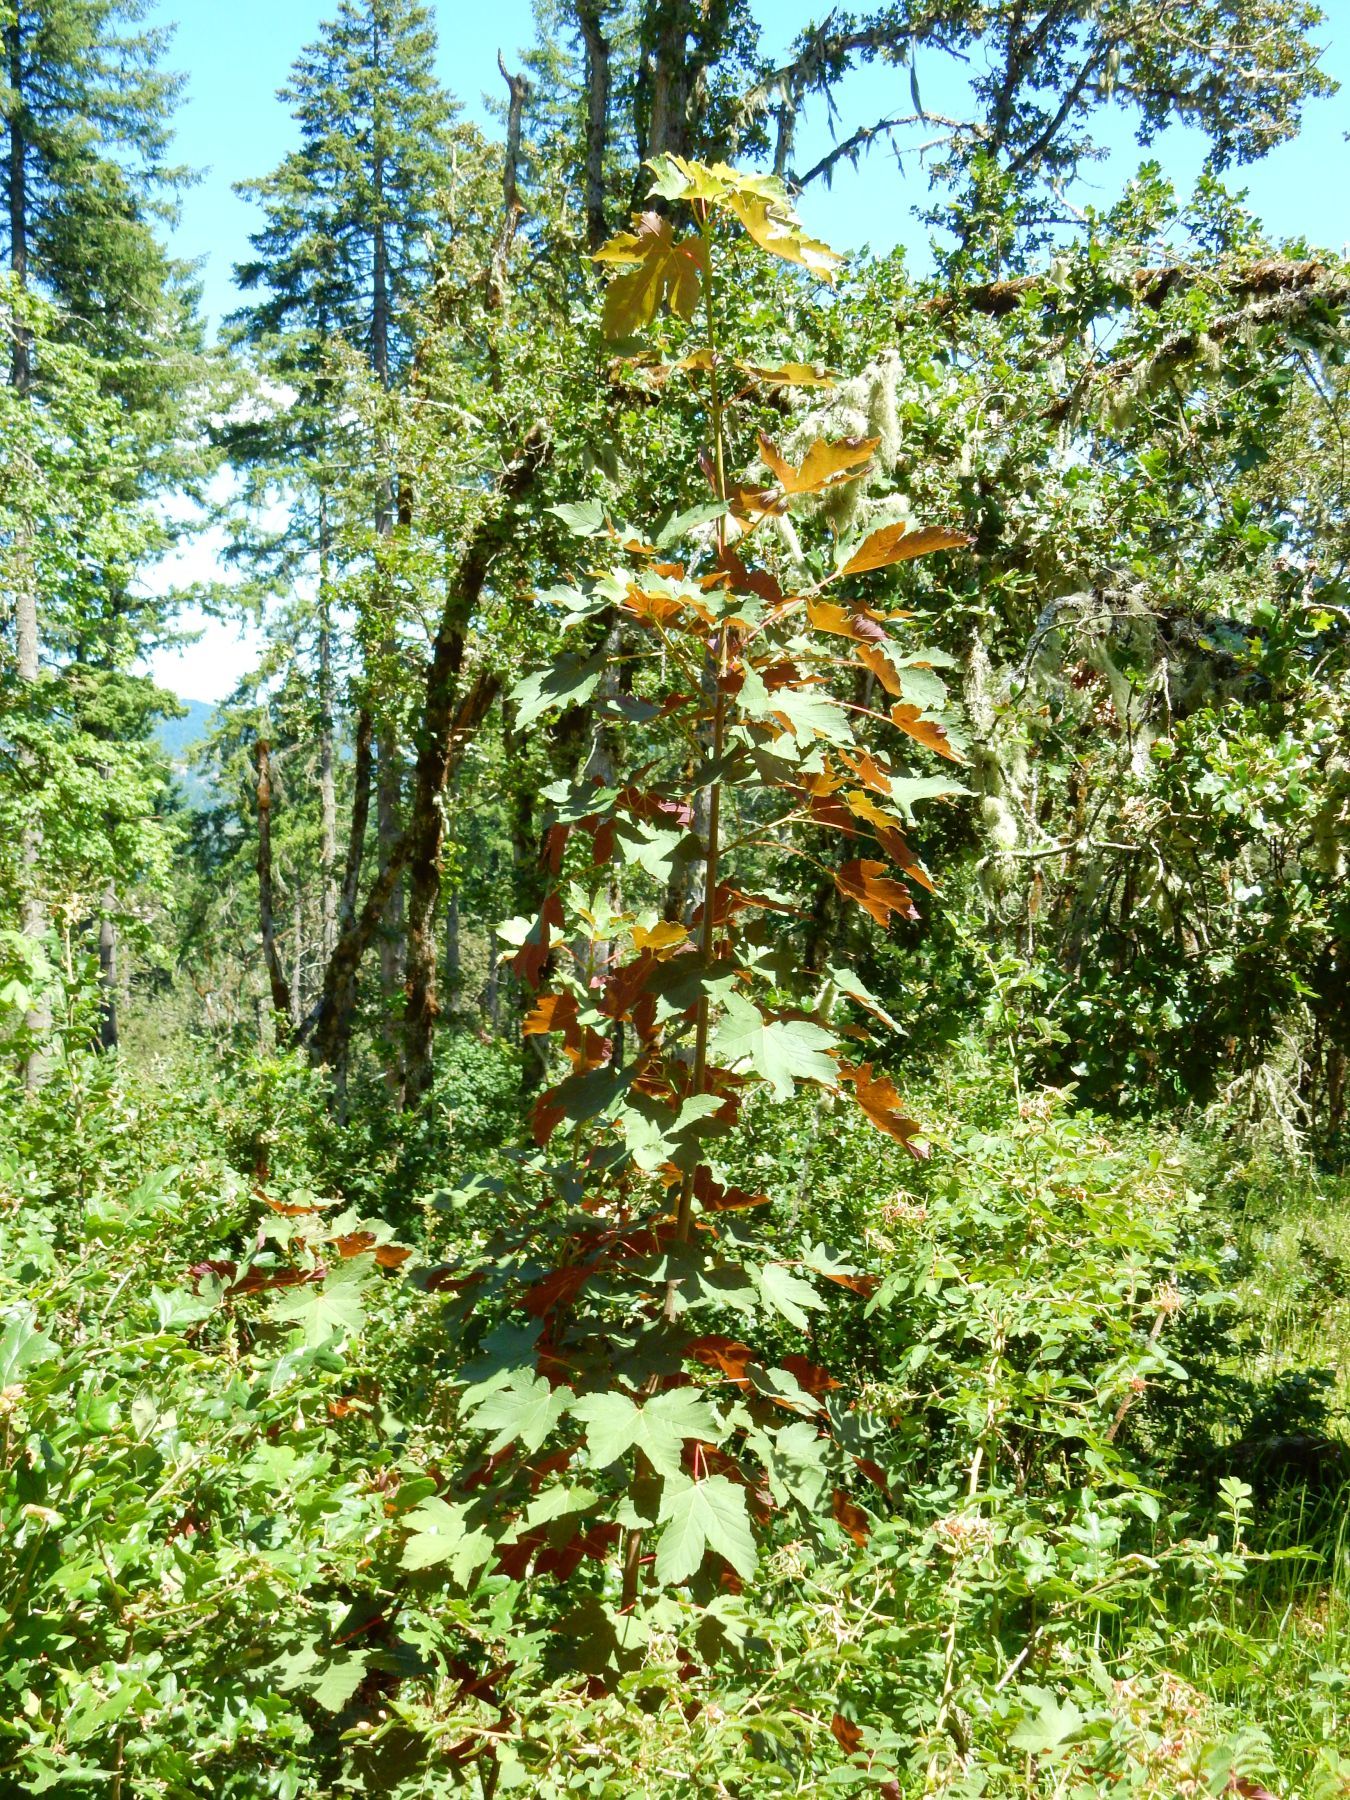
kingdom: Plantae
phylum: Tracheophyta
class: Magnoliopsida
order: Sapindales
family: Sapindaceae
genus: Acer
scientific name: Acer pseudoplatanus
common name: Sycamore
